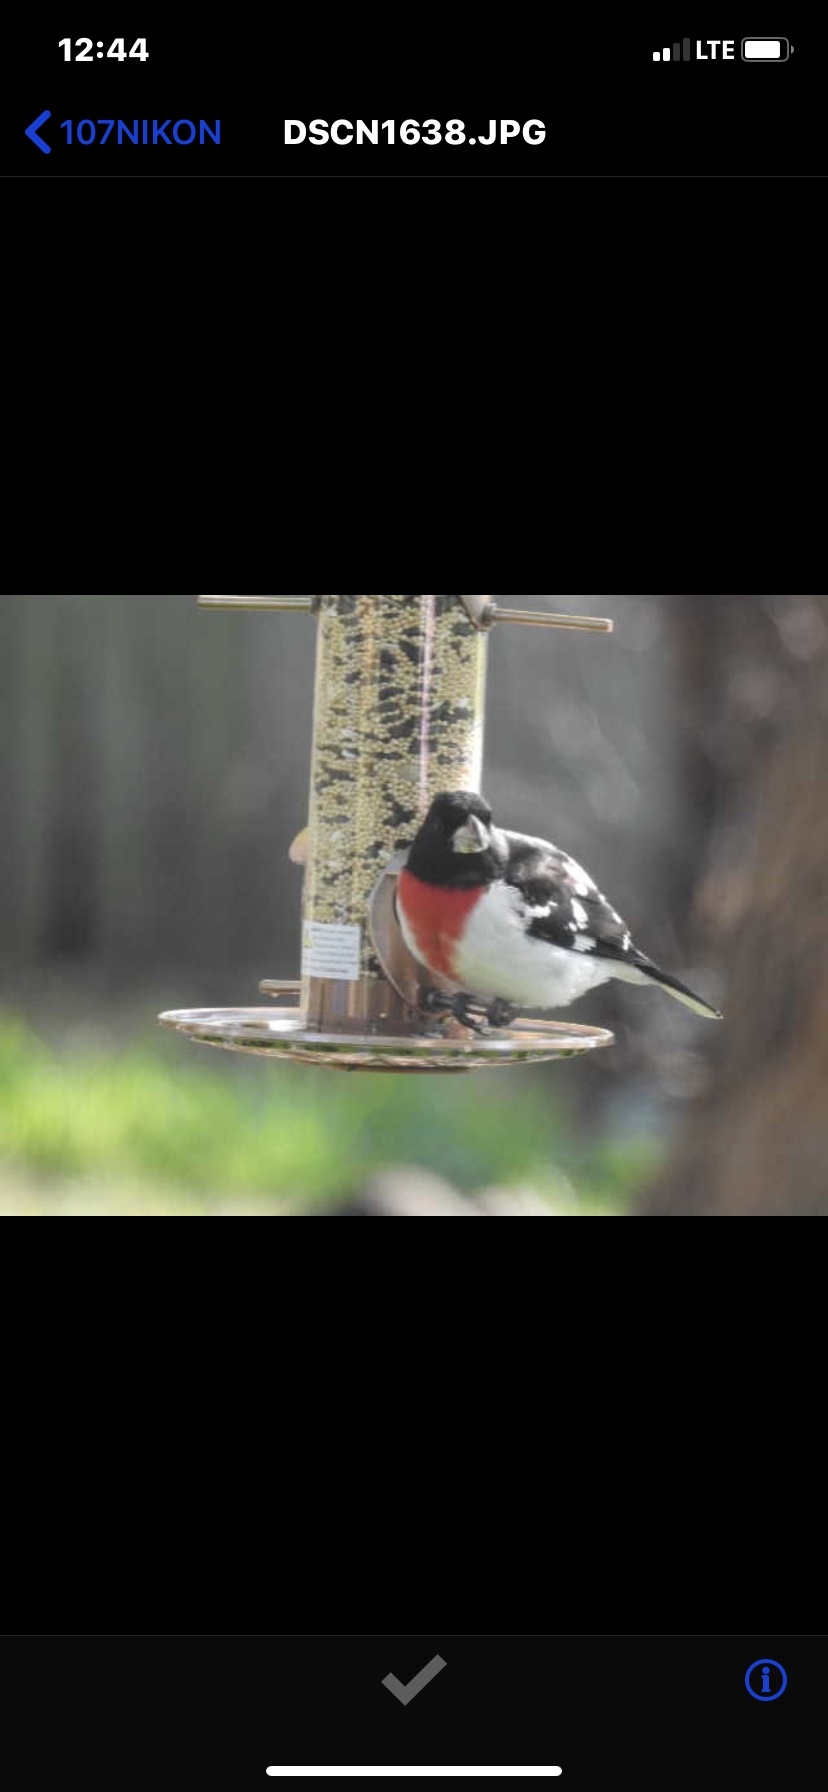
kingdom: Animalia
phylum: Chordata
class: Aves
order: Passeriformes
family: Cardinalidae
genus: Pheucticus
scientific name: Pheucticus ludovicianus
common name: Rose-breasted grosbeak
